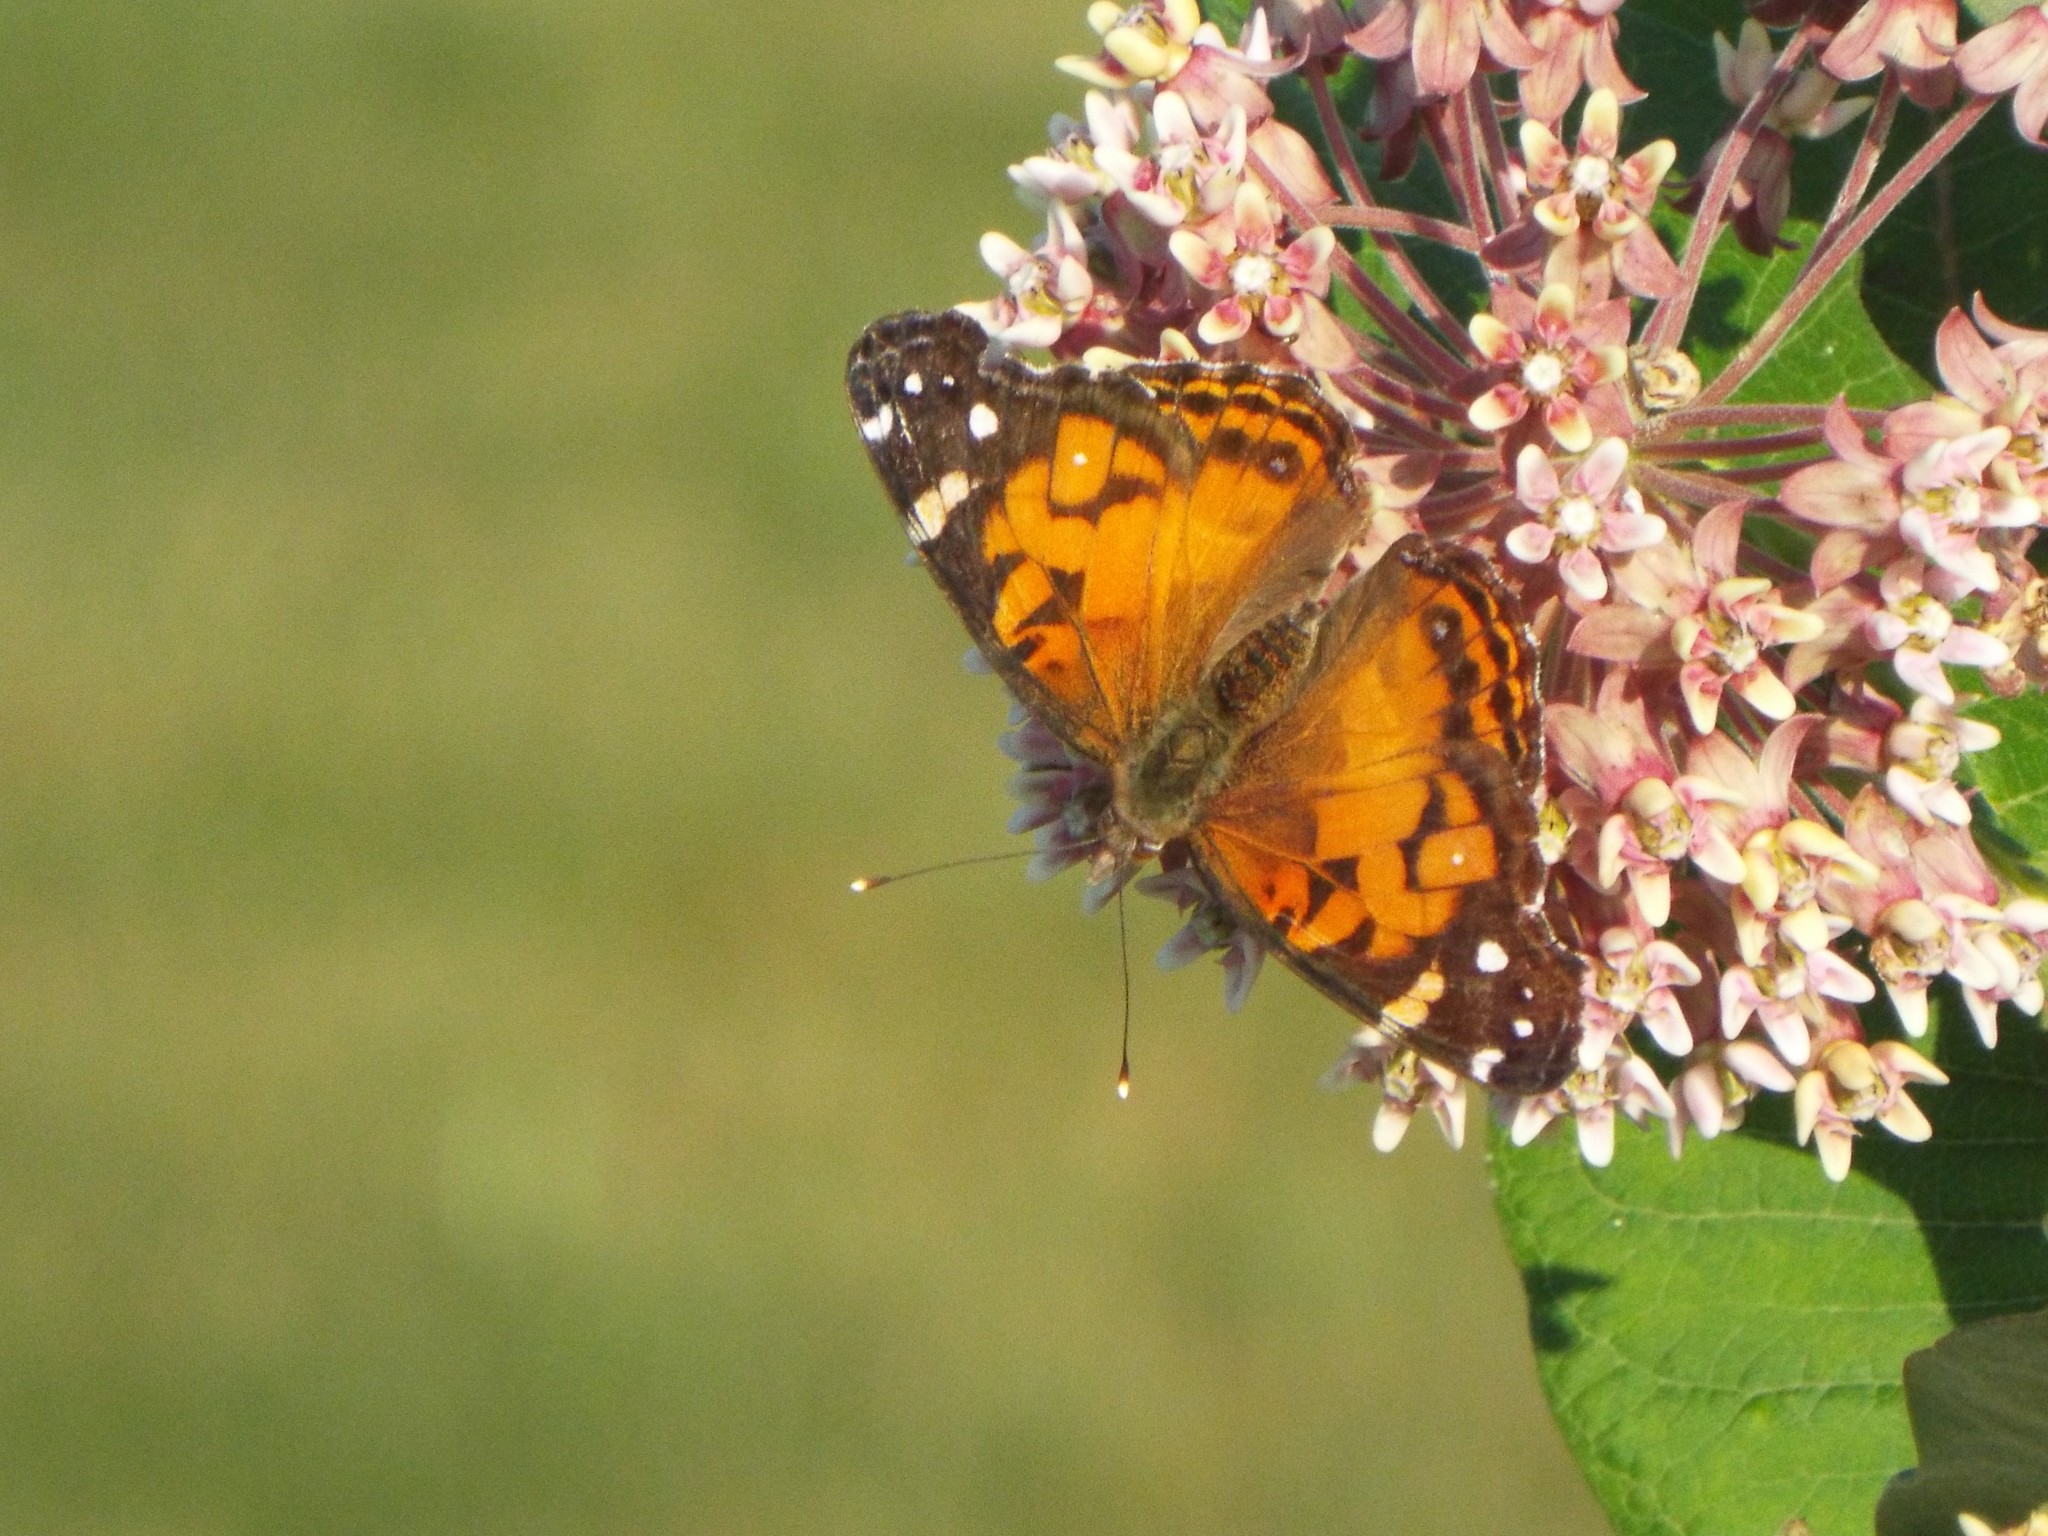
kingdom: Animalia
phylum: Arthropoda
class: Insecta
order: Lepidoptera
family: Nymphalidae
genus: Vanessa
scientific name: Vanessa virginiensis
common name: American lady
